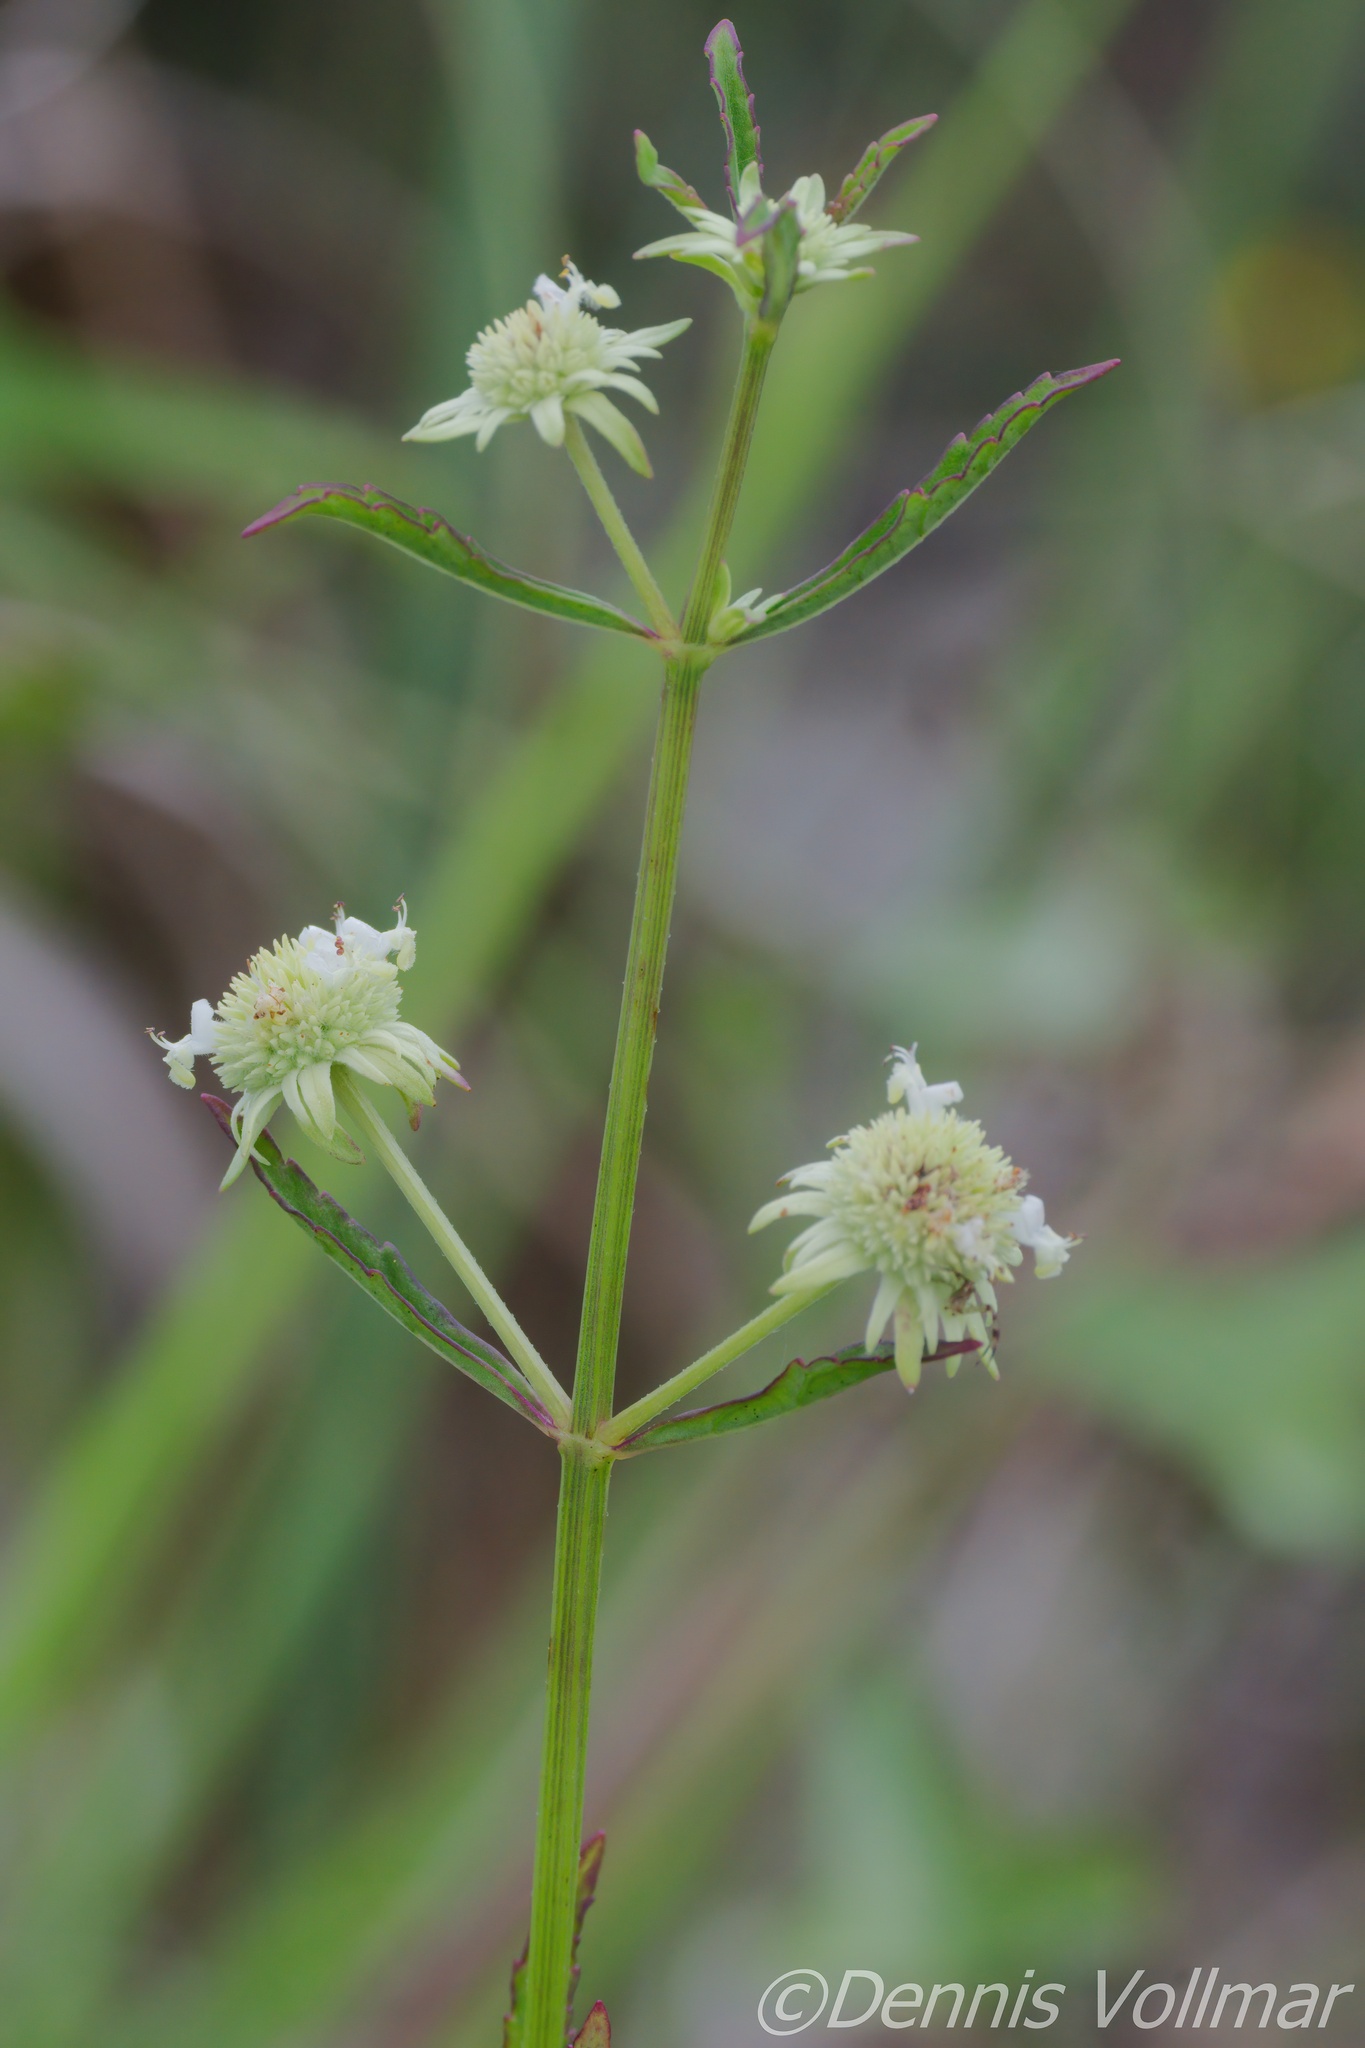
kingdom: Plantae
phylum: Tracheophyta
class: Magnoliopsida
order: Lamiales
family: Lamiaceae
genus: Hyptis
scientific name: Hyptis alata
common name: Cluster bush-mint
